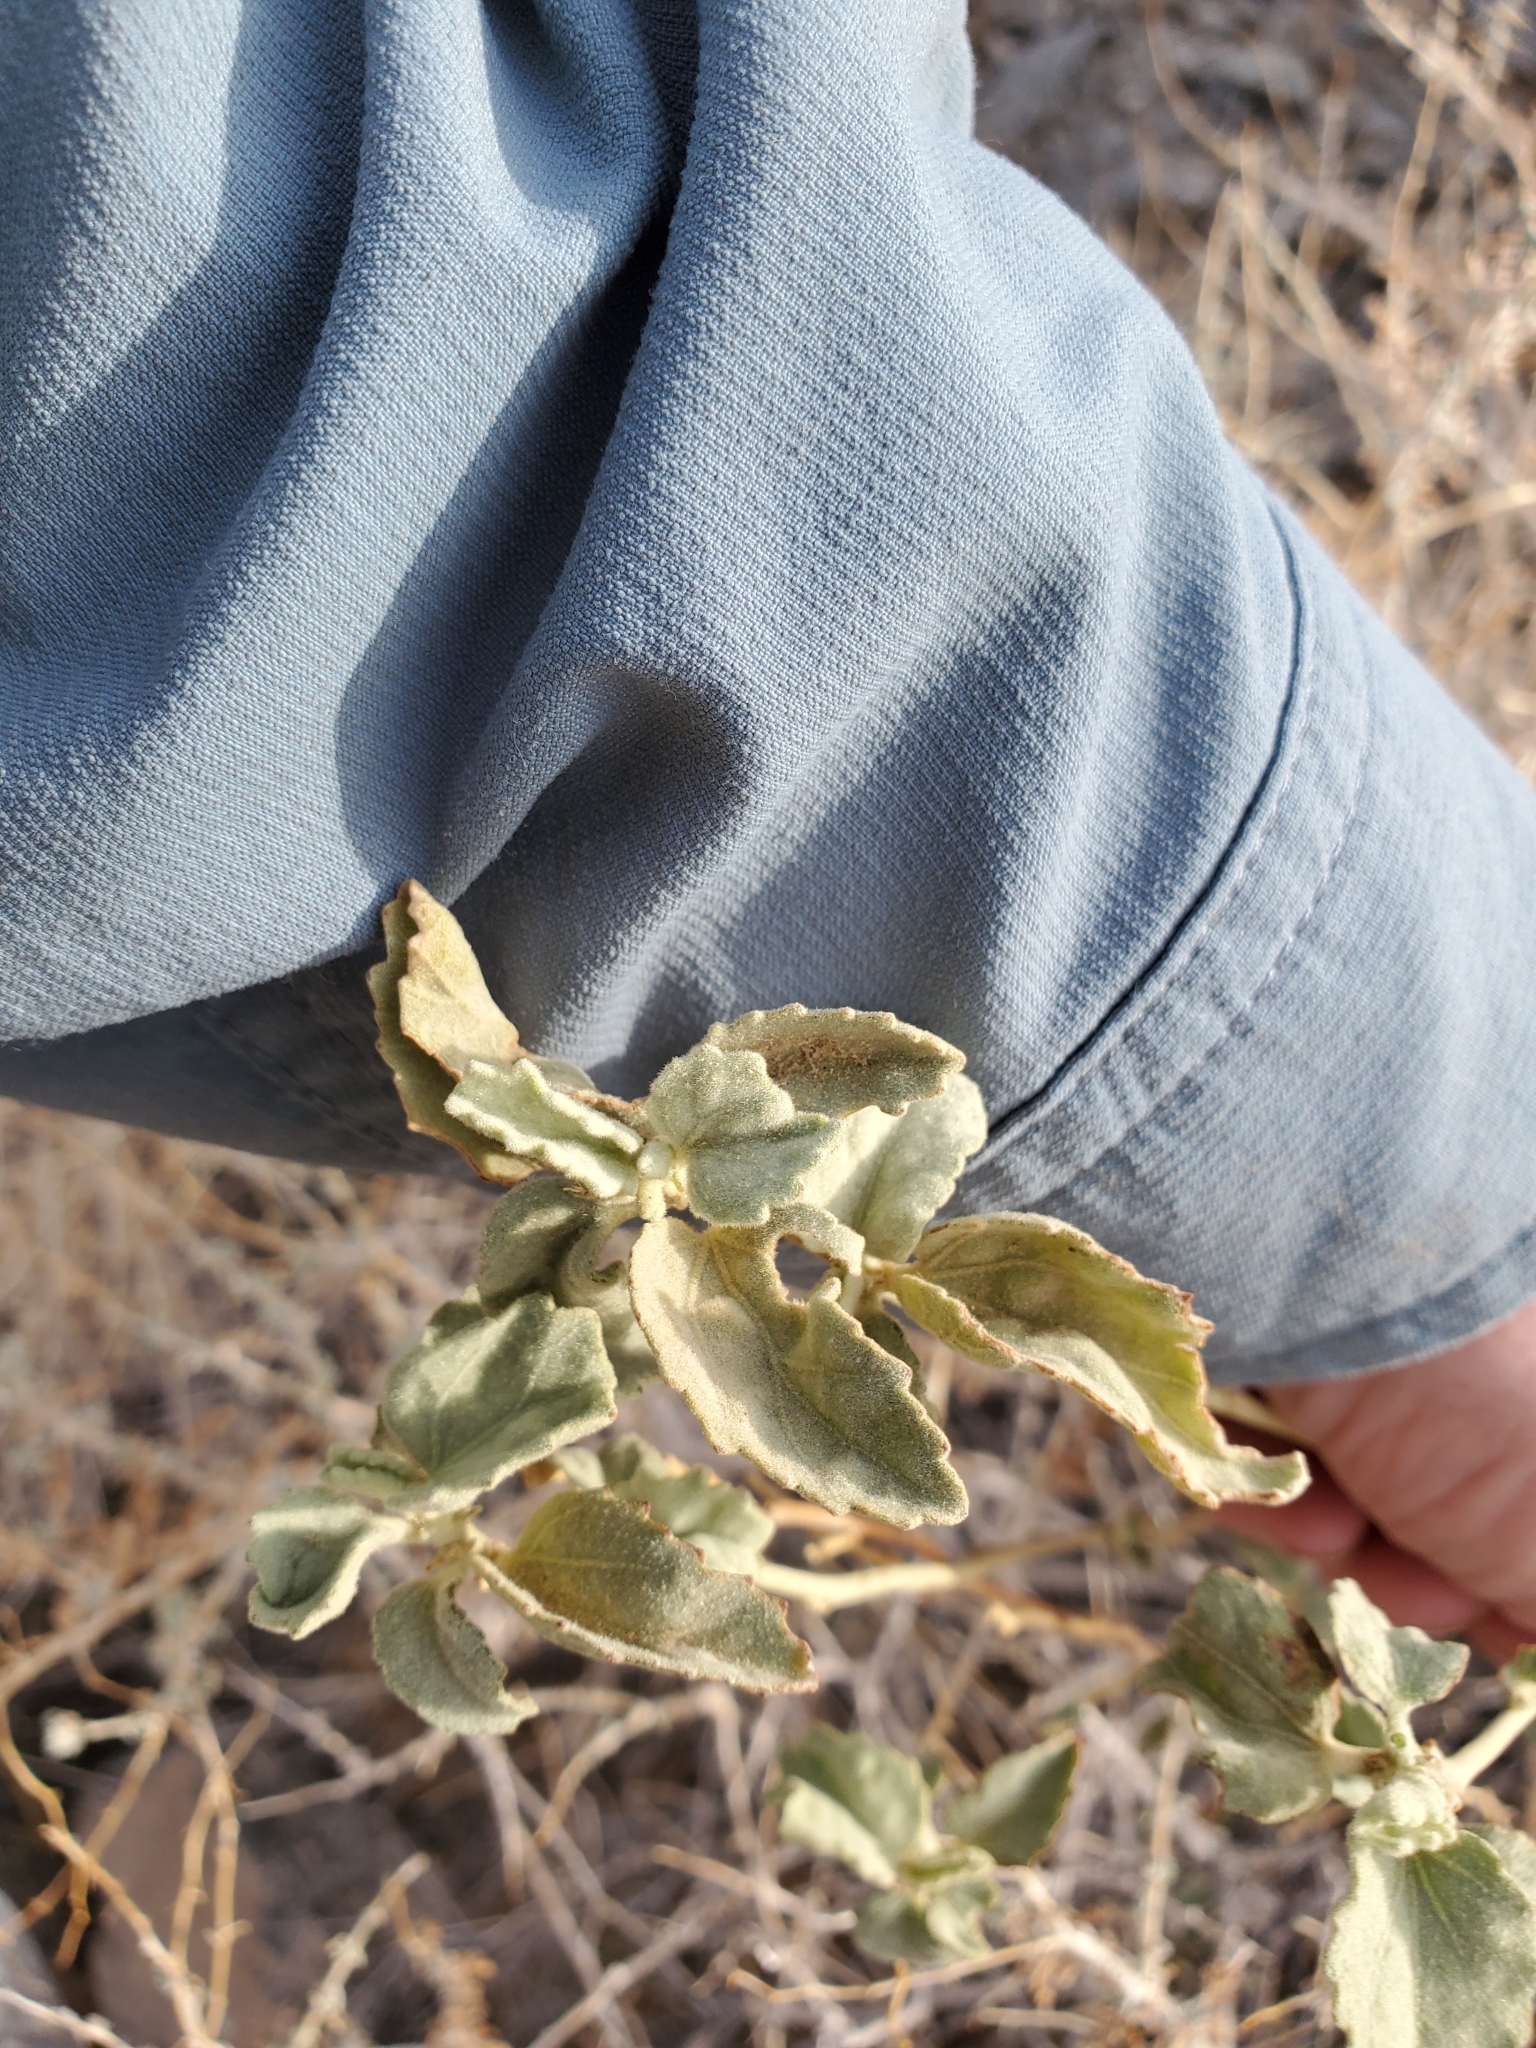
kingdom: Plantae
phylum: Tracheophyta
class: Magnoliopsida
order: Malvales
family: Malvaceae
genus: Hibiscus
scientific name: Hibiscus denudatus
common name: Paleface
